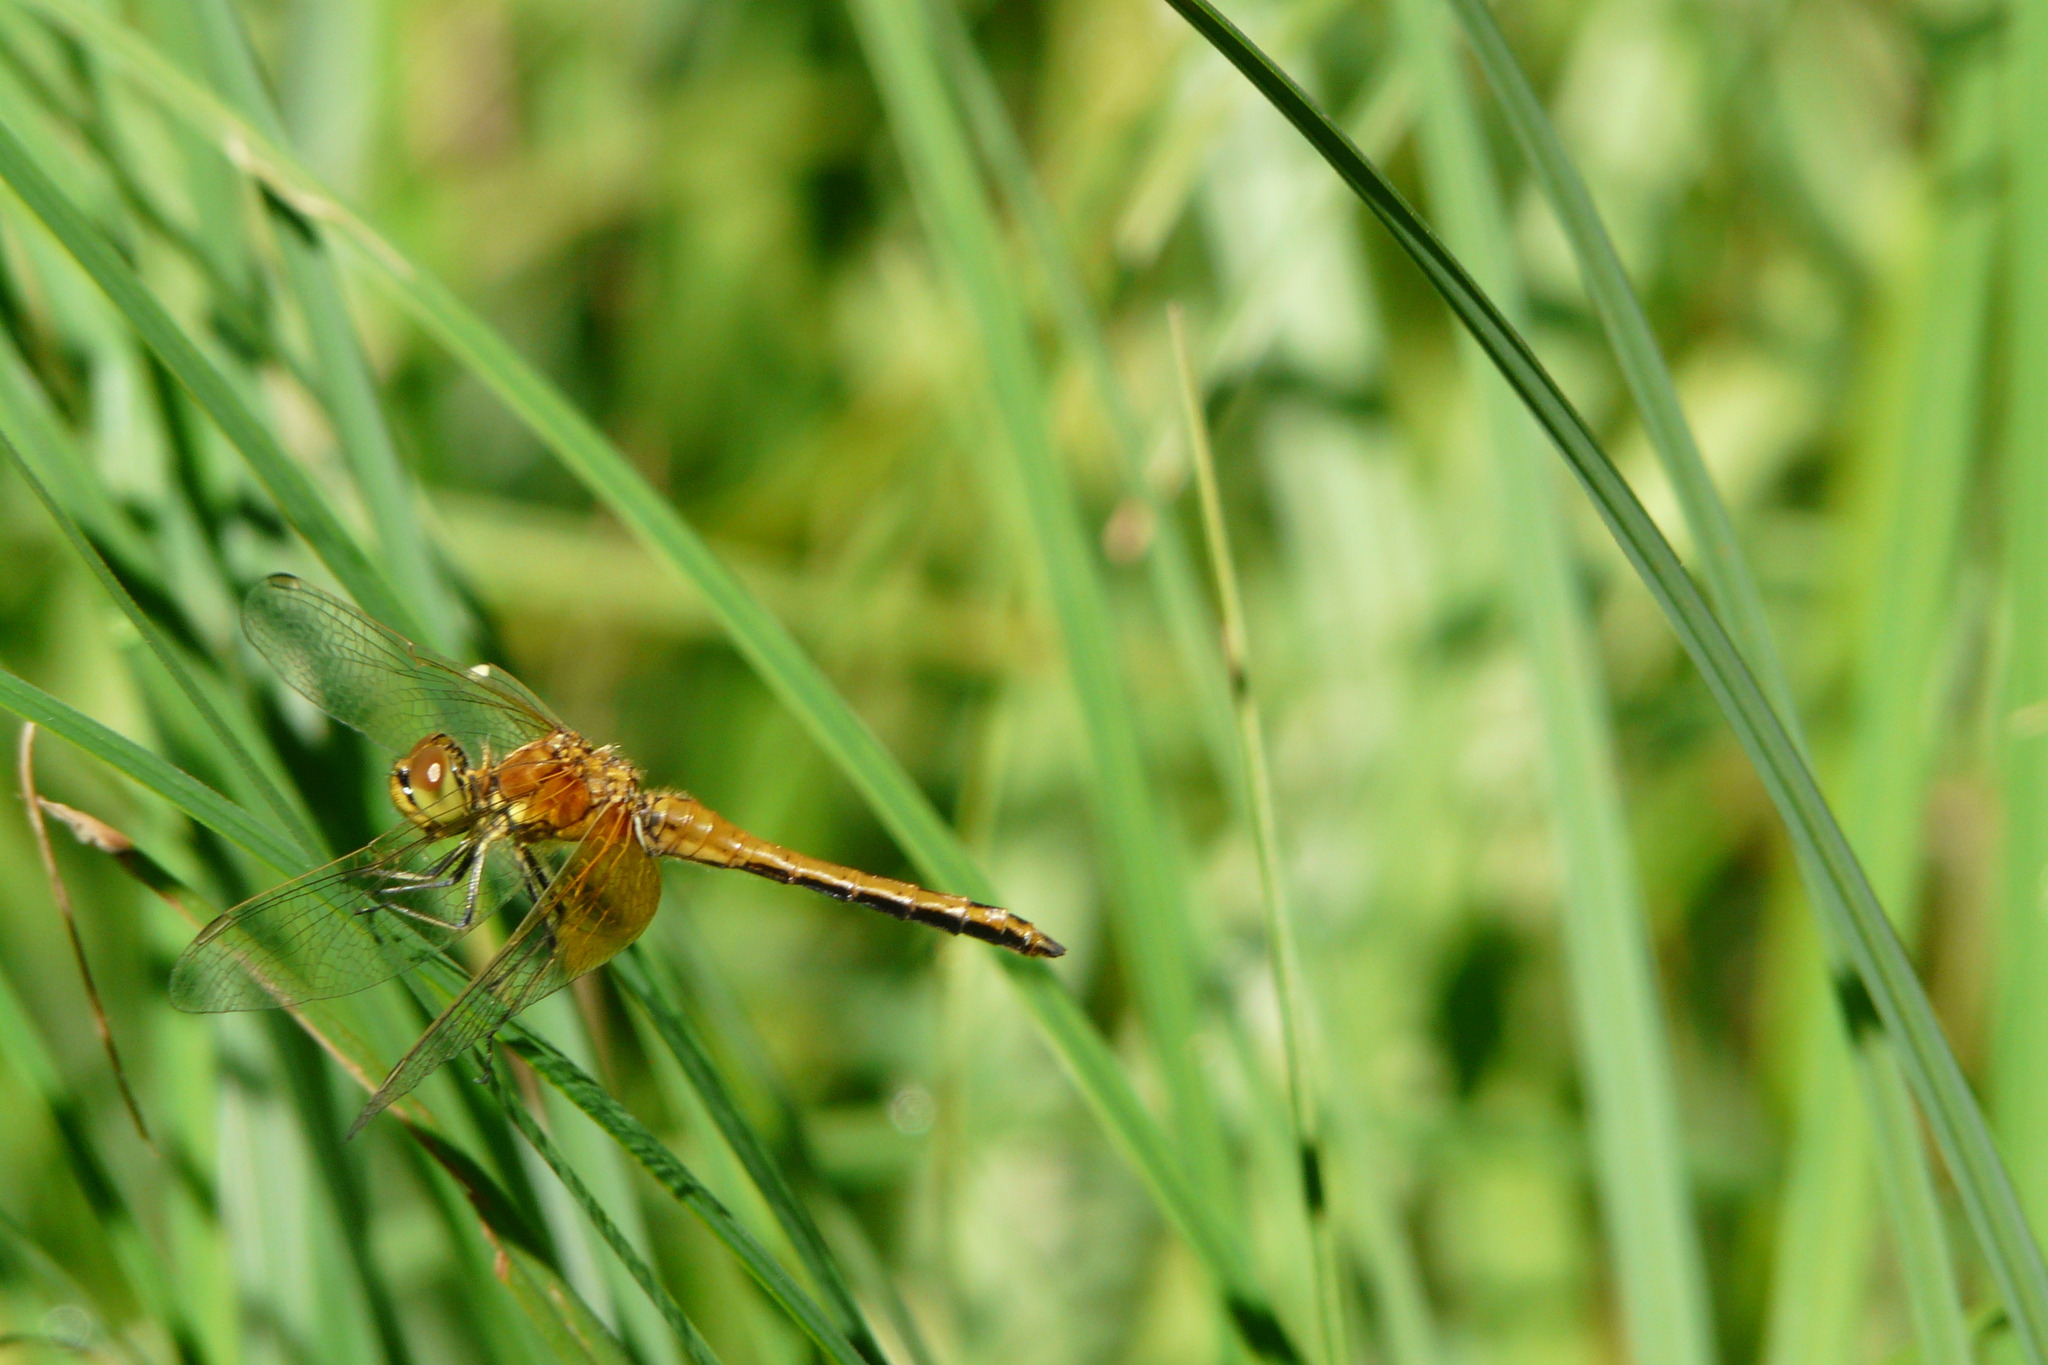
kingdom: Animalia
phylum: Arthropoda
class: Insecta
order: Odonata
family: Libellulidae
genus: Sympetrum
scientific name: Sympetrum flaveolum
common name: Yellow-winged darter
